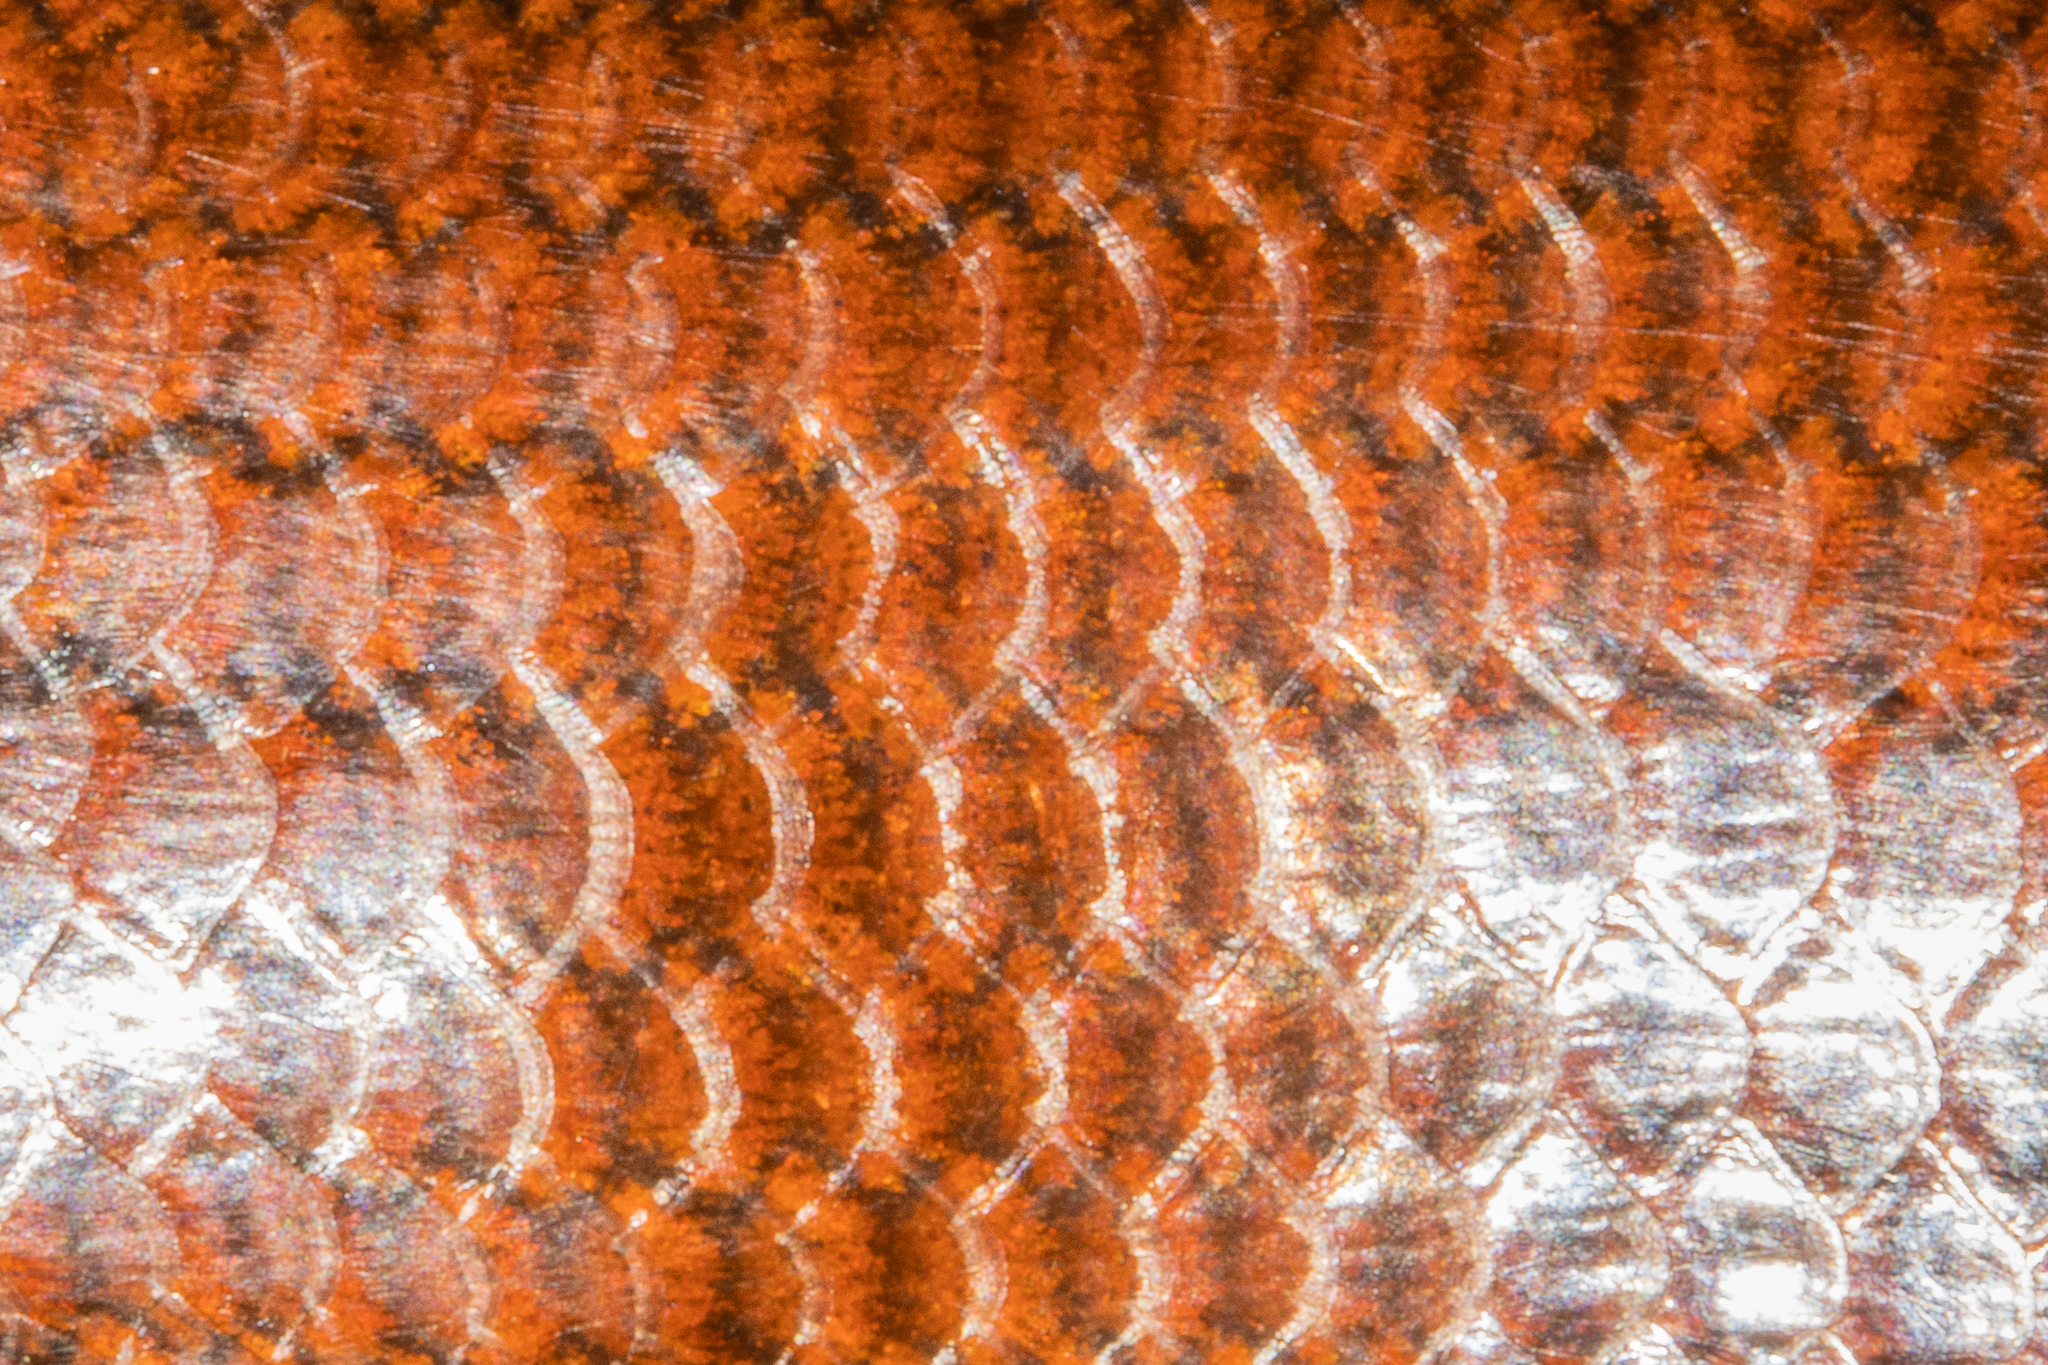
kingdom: Animalia
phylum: Chordata
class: Squamata
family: Scincidae
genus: Oligosoma
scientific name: Oligosoma pikitanga
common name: Sinbad skink
